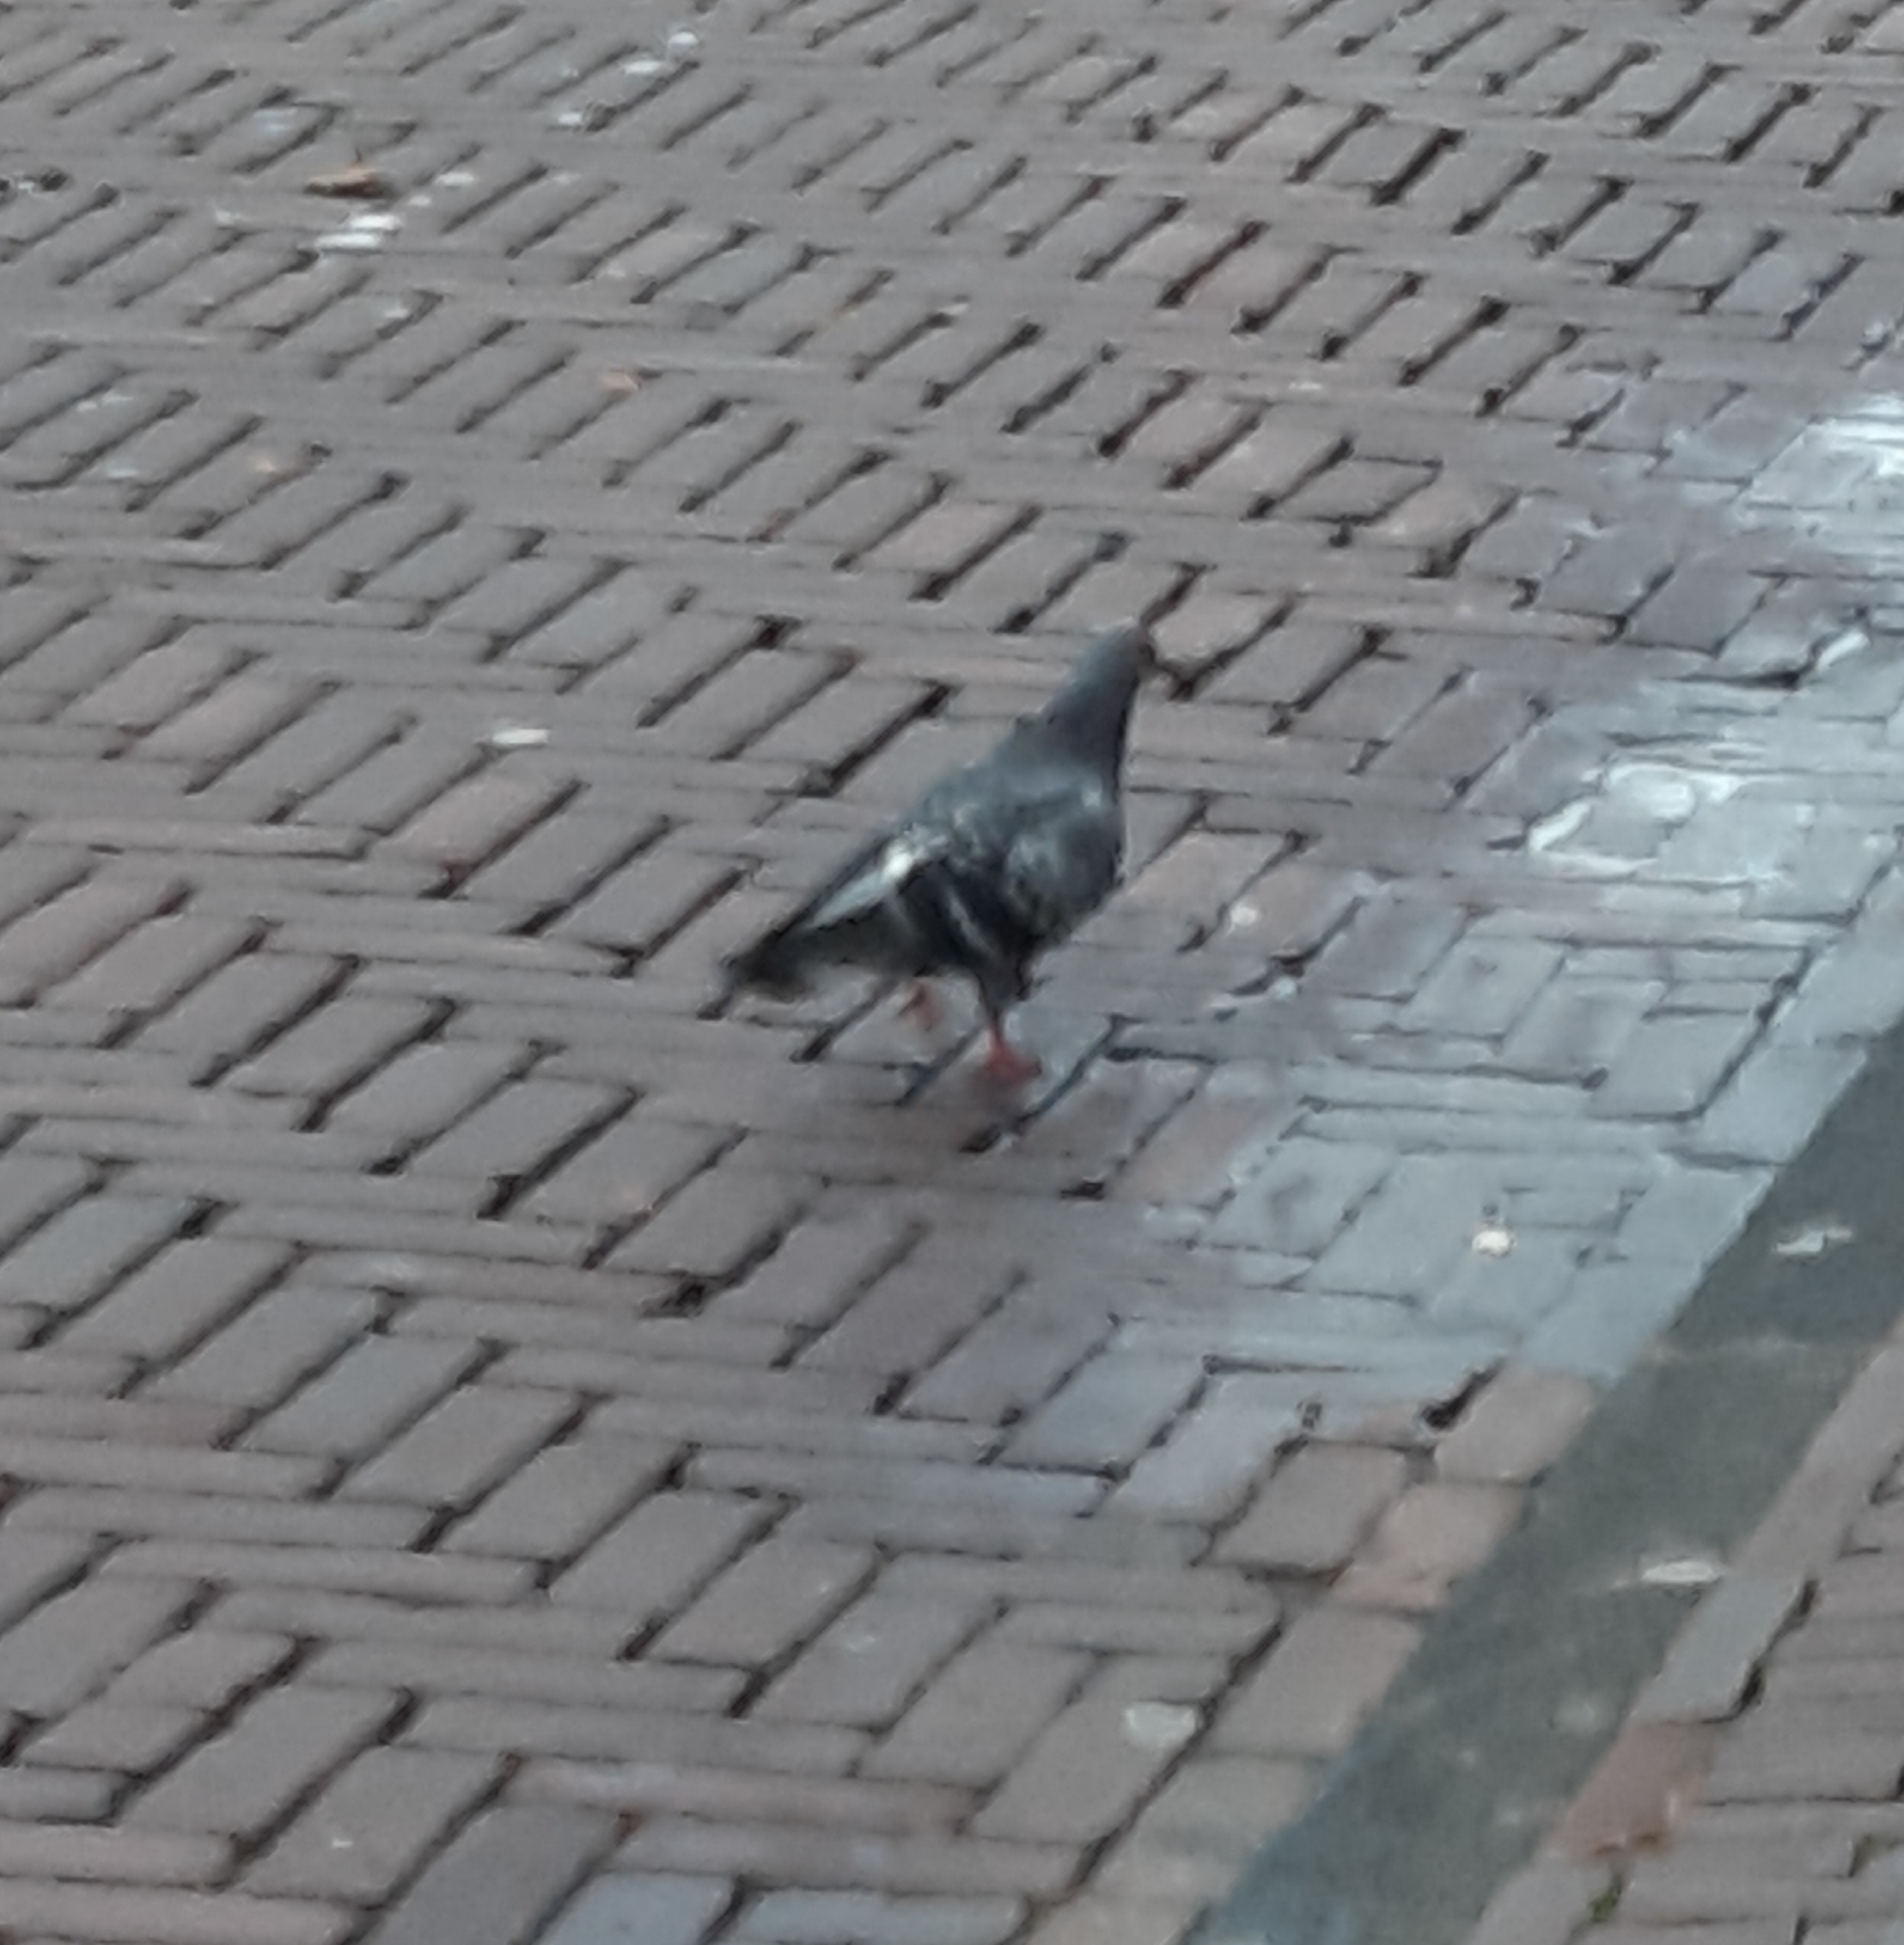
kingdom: Animalia
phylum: Chordata
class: Aves
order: Columbiformes
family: Columbidae
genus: Columba
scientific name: Columba livia
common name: Rock pigeon
